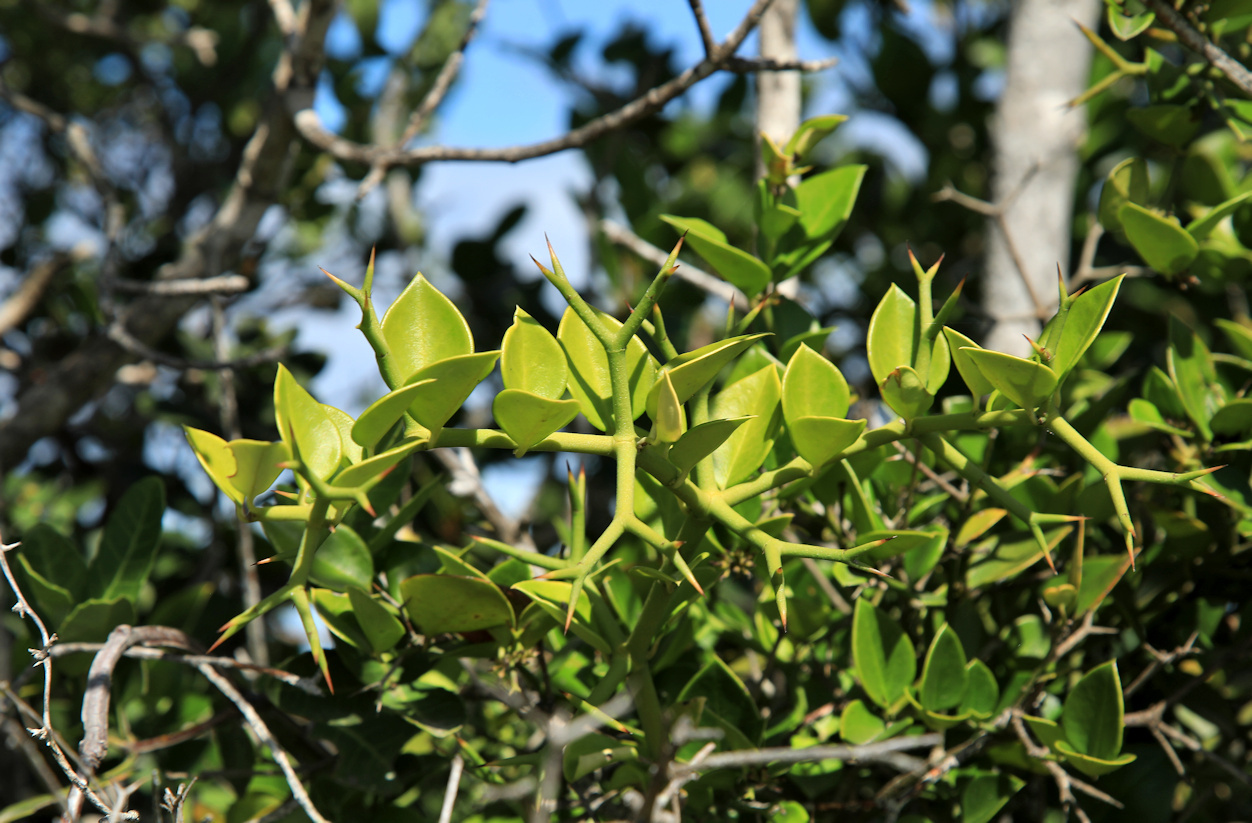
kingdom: Plantae
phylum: Tracheophyta
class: Magnoliopsida
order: Gentianales
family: Apocynaceae
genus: Carissa
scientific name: Carissa bispinosa
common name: Forest num-num
